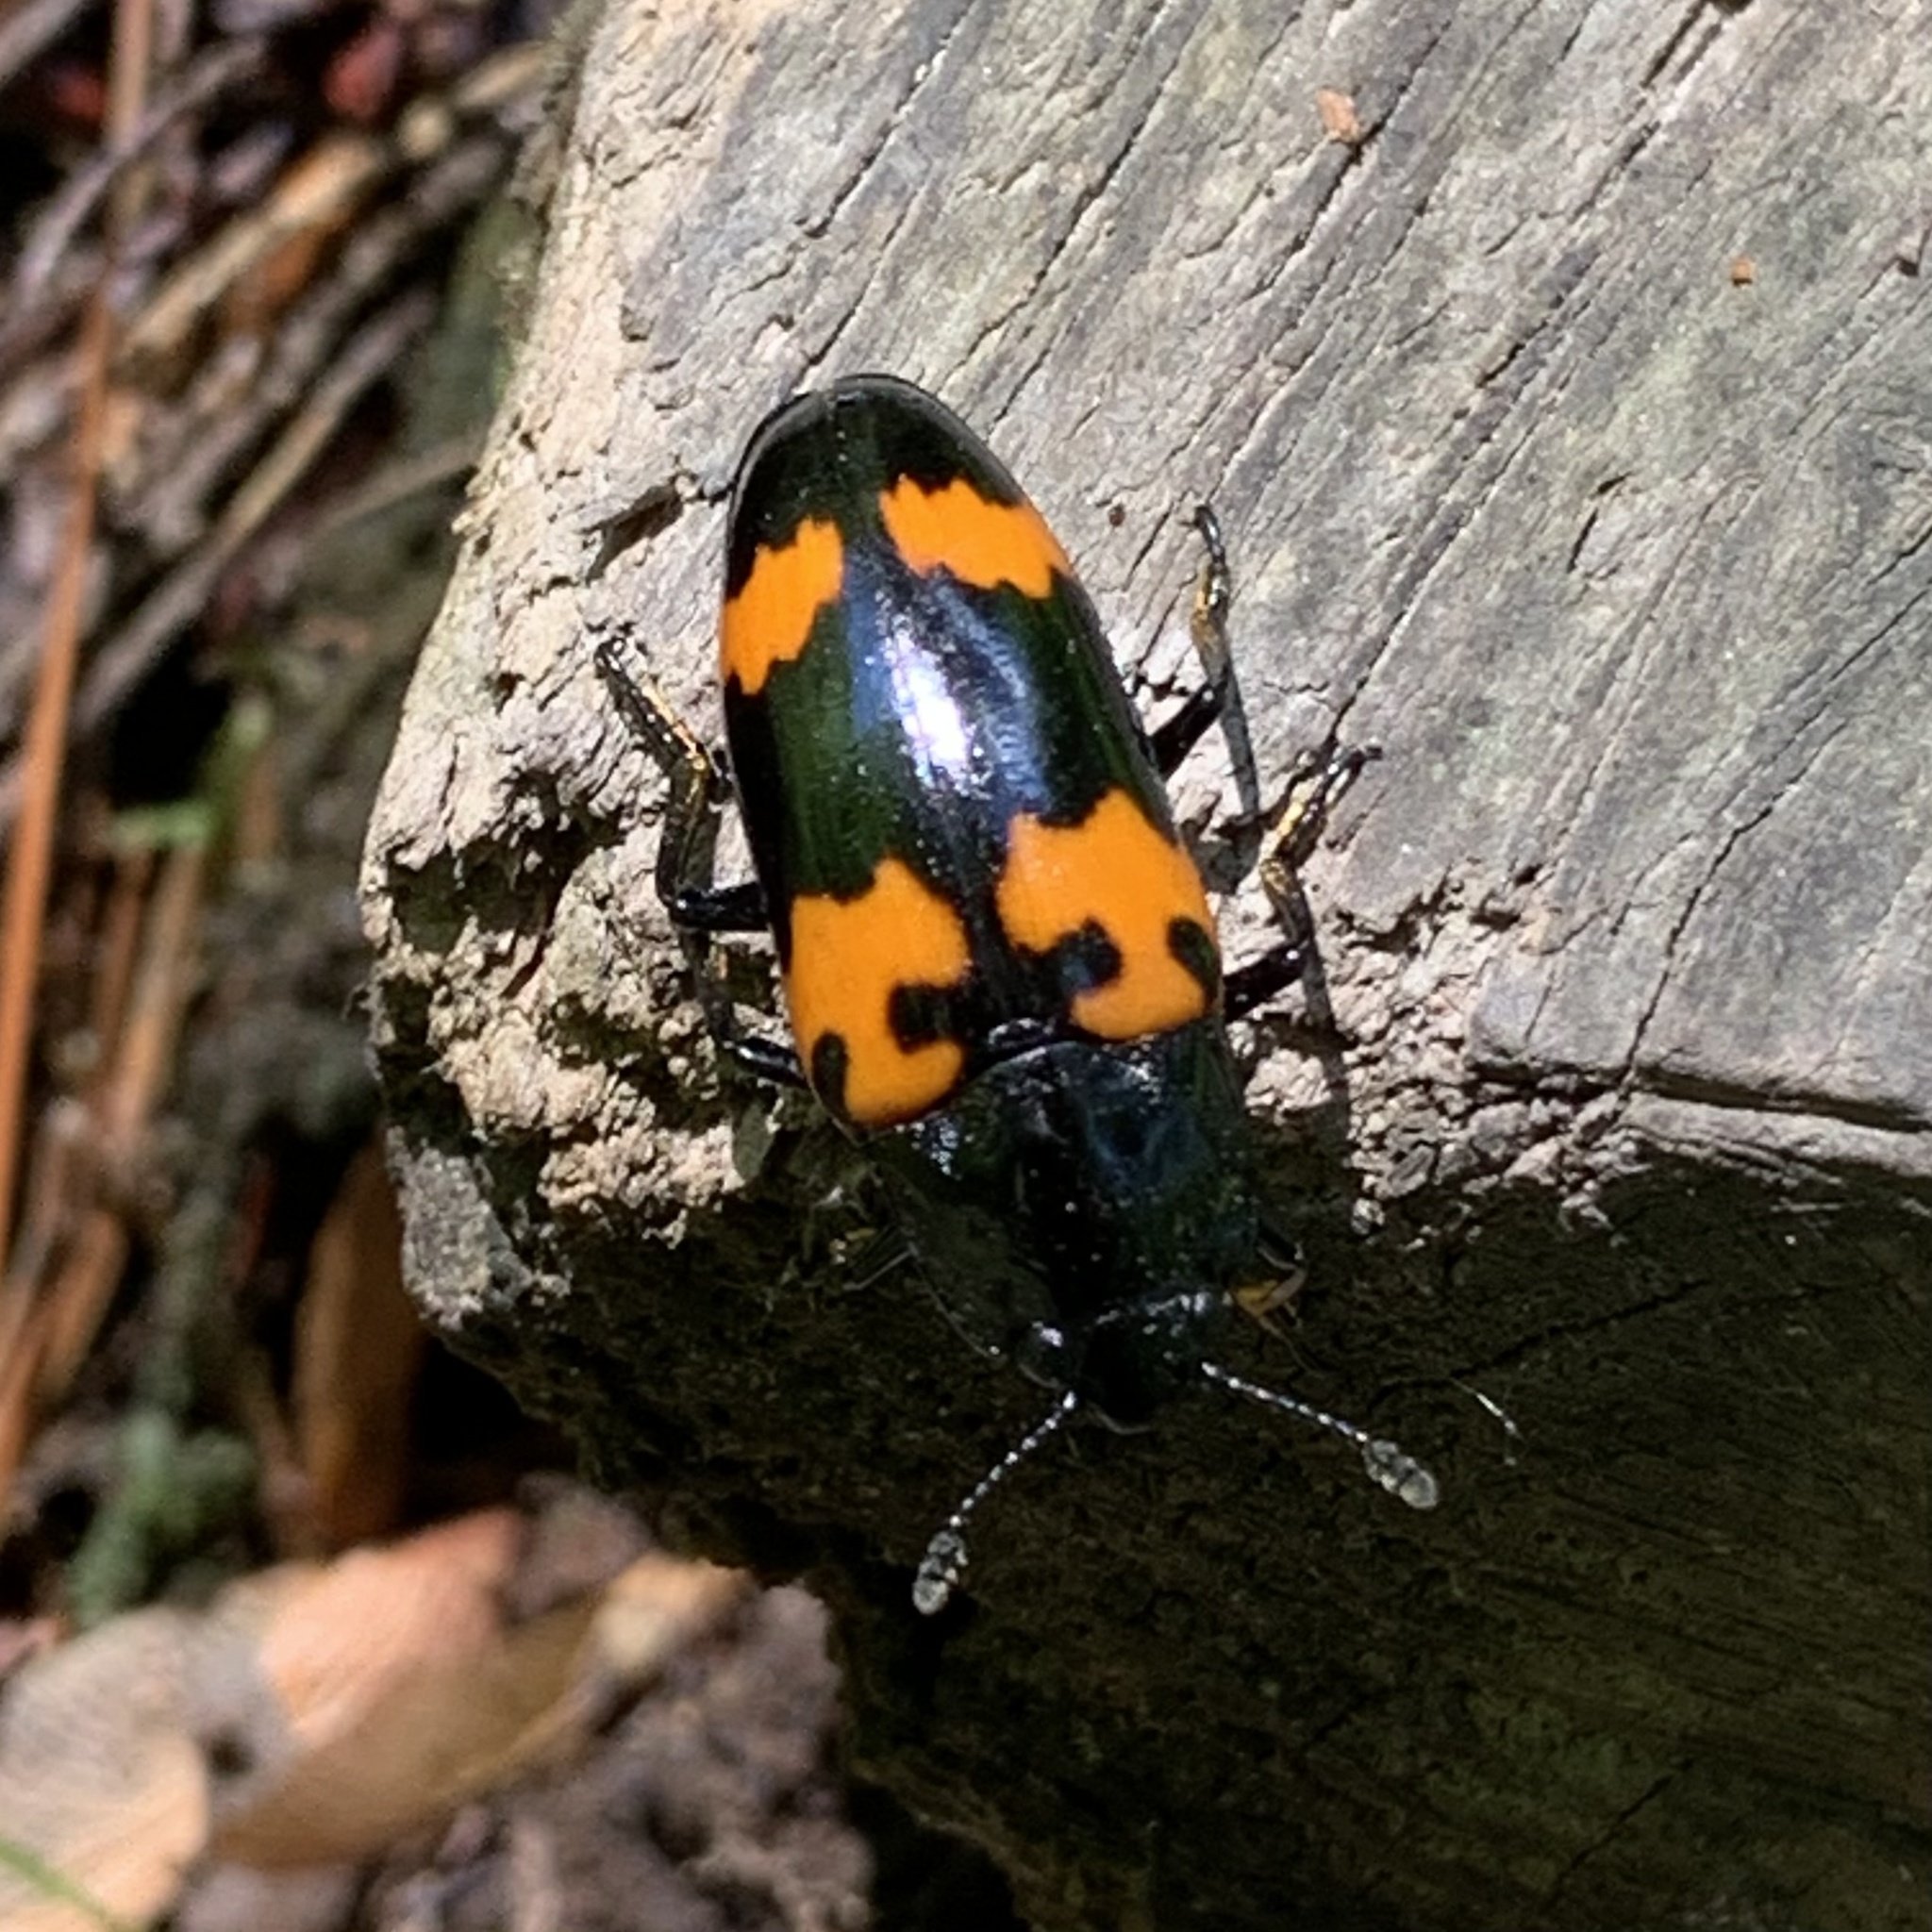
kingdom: Animalia
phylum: Arthropoda
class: Insecta
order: Coleoptera
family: Erotylidae
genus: Megalodacne
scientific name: Megalodacne heros
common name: Pleasing fungus beetle
